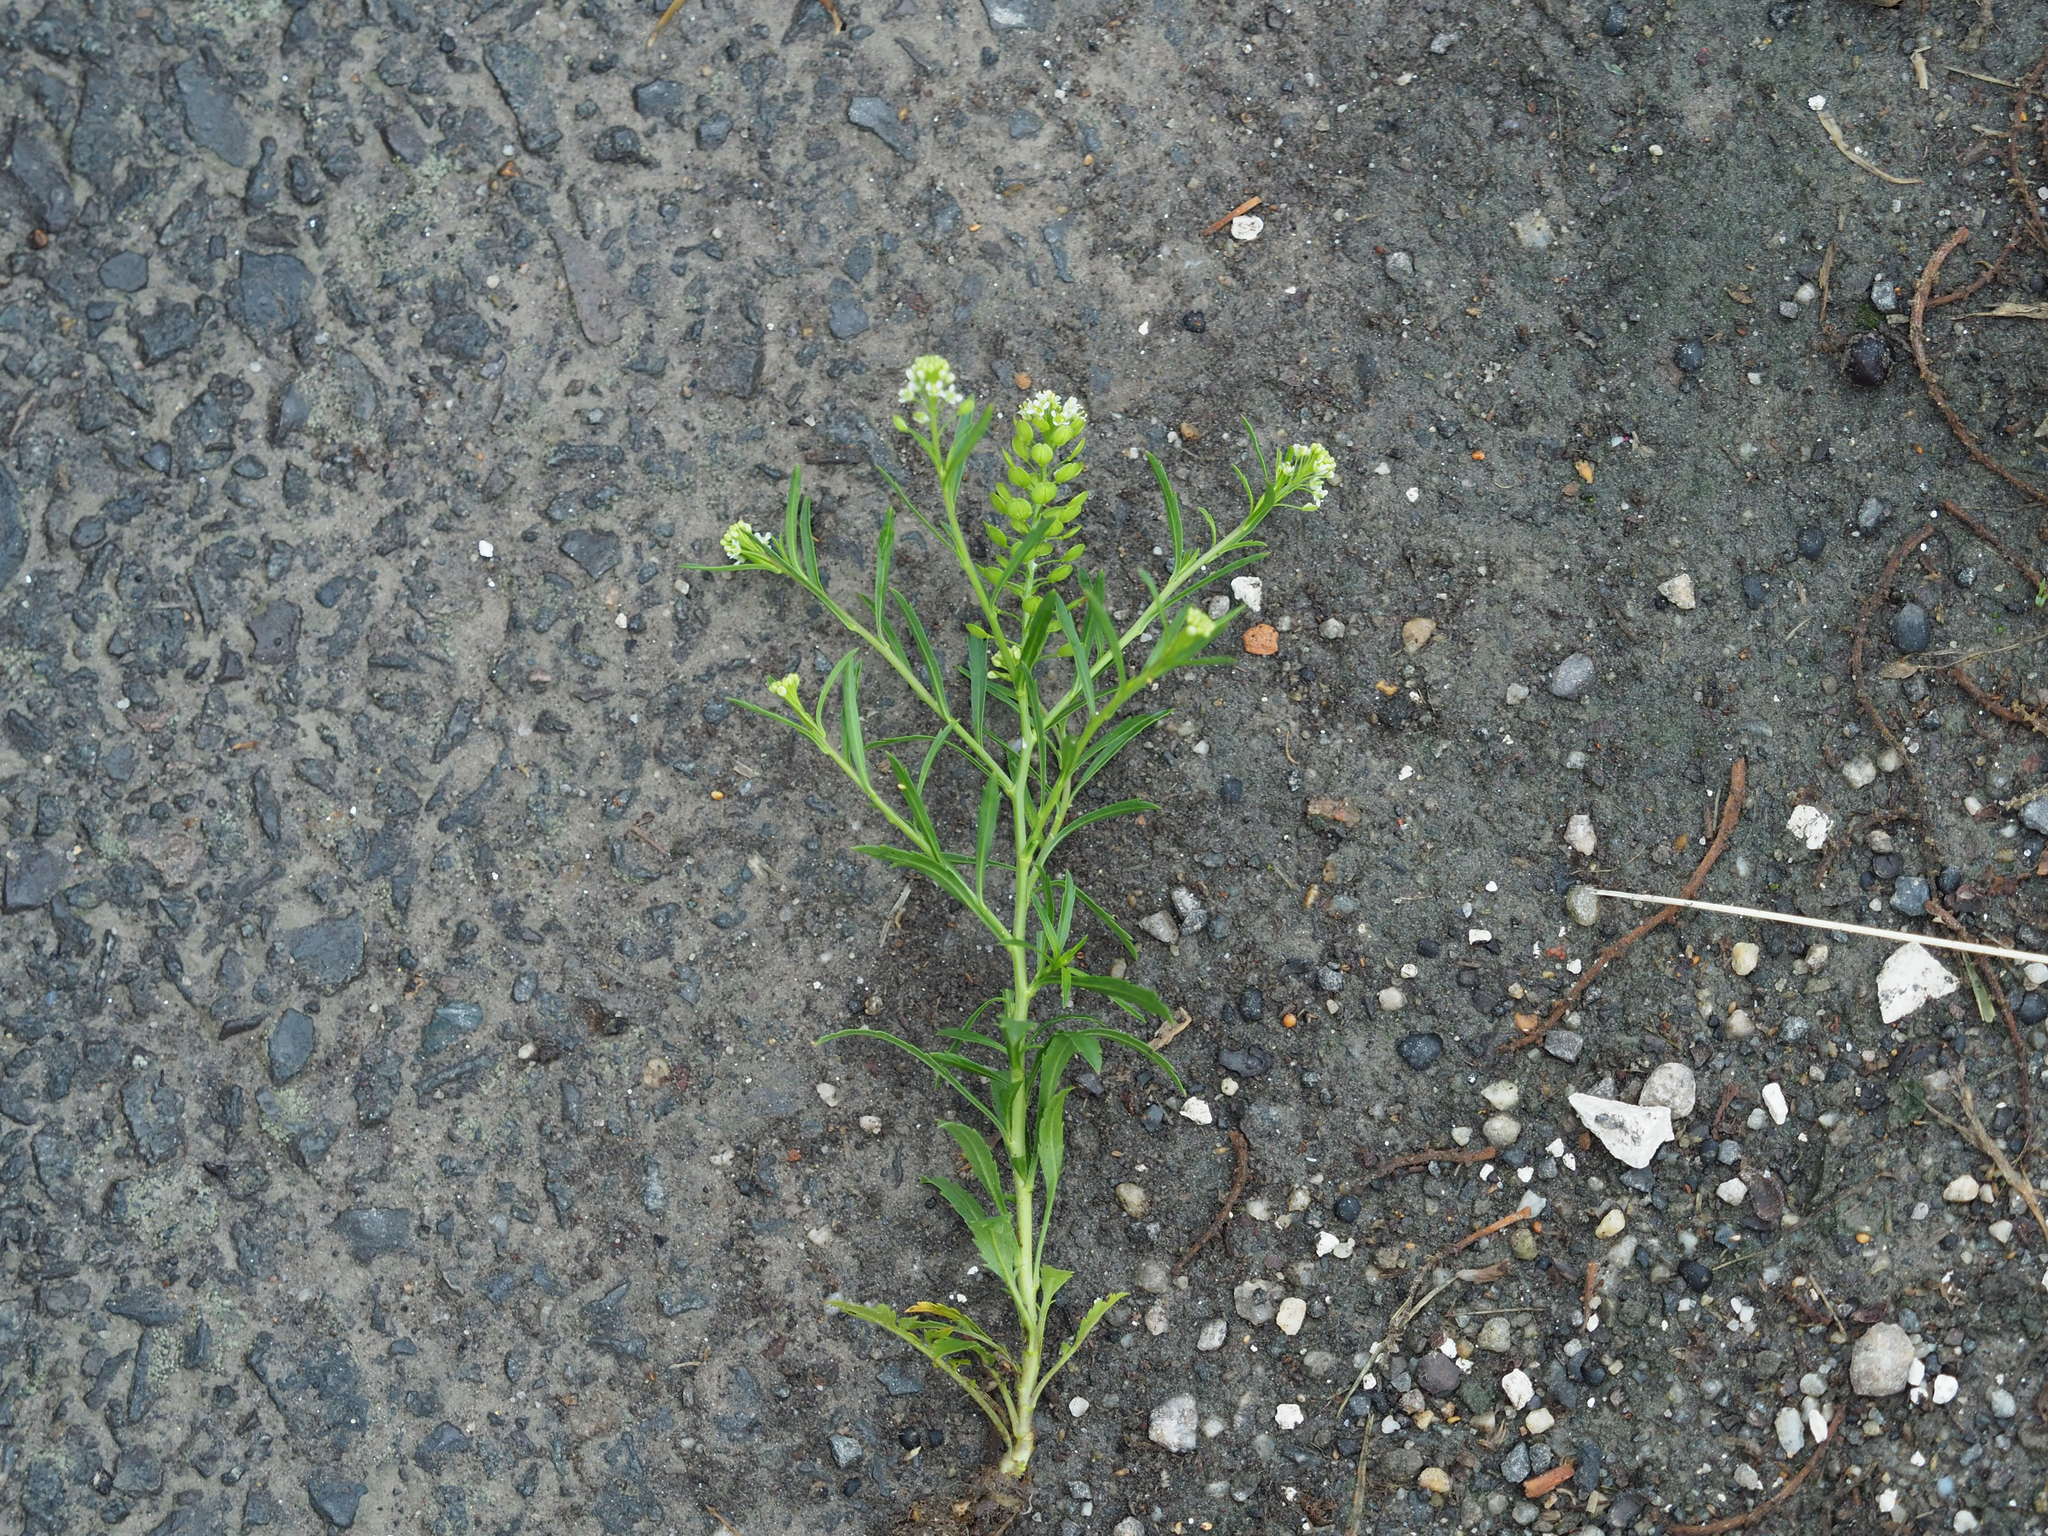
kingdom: Plantae
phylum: Tracheophyta
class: Magnoliopsida
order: Brassicales
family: Brassicaceae
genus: Lepidium
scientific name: Lepidium virginicum
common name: Least pepperwort
